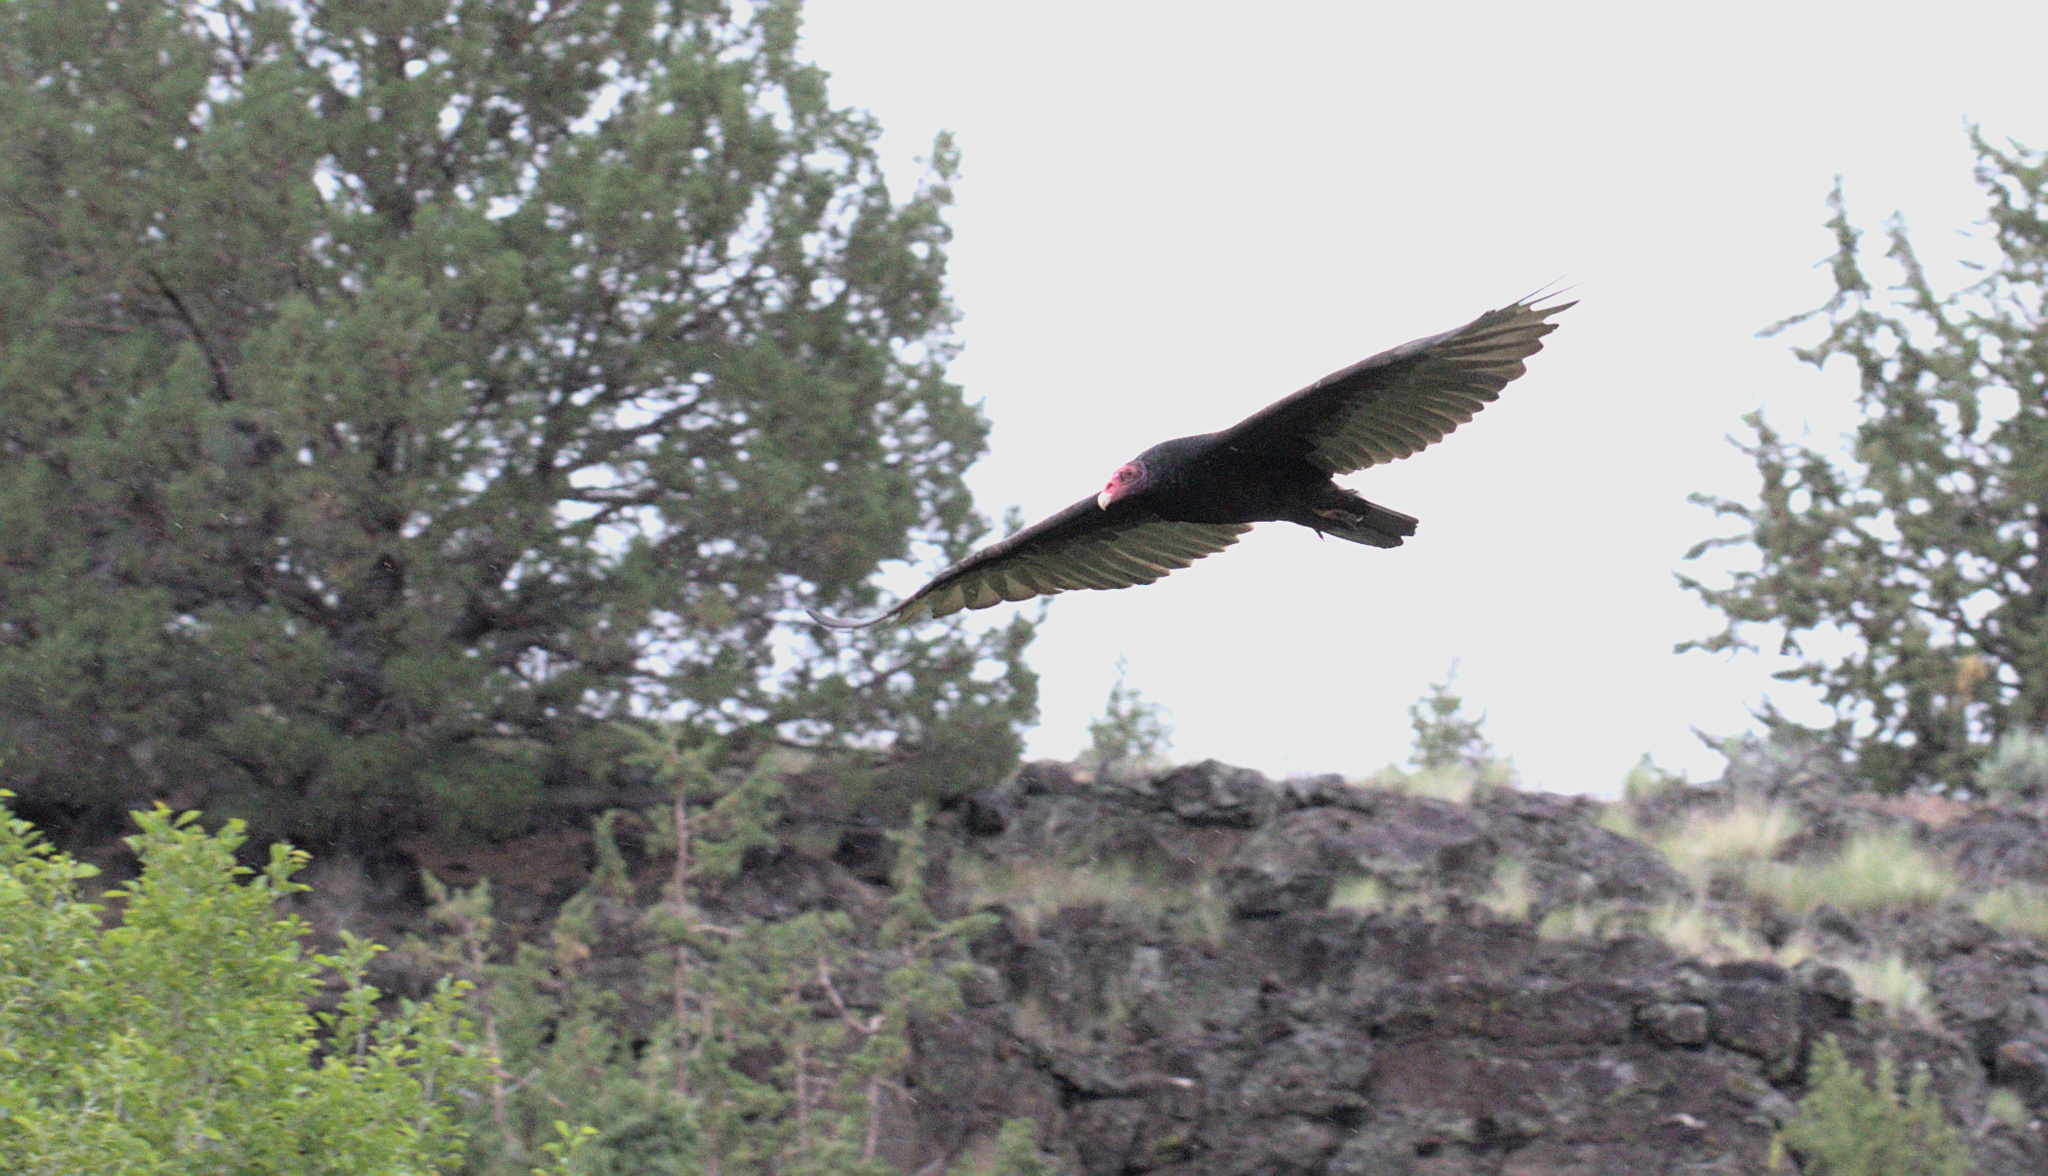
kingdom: Animalia
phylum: Chordata
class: Aves
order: Accipitriformes
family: Cathartidae
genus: Cathartes
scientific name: Cathartes aura
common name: Turkey vulture
